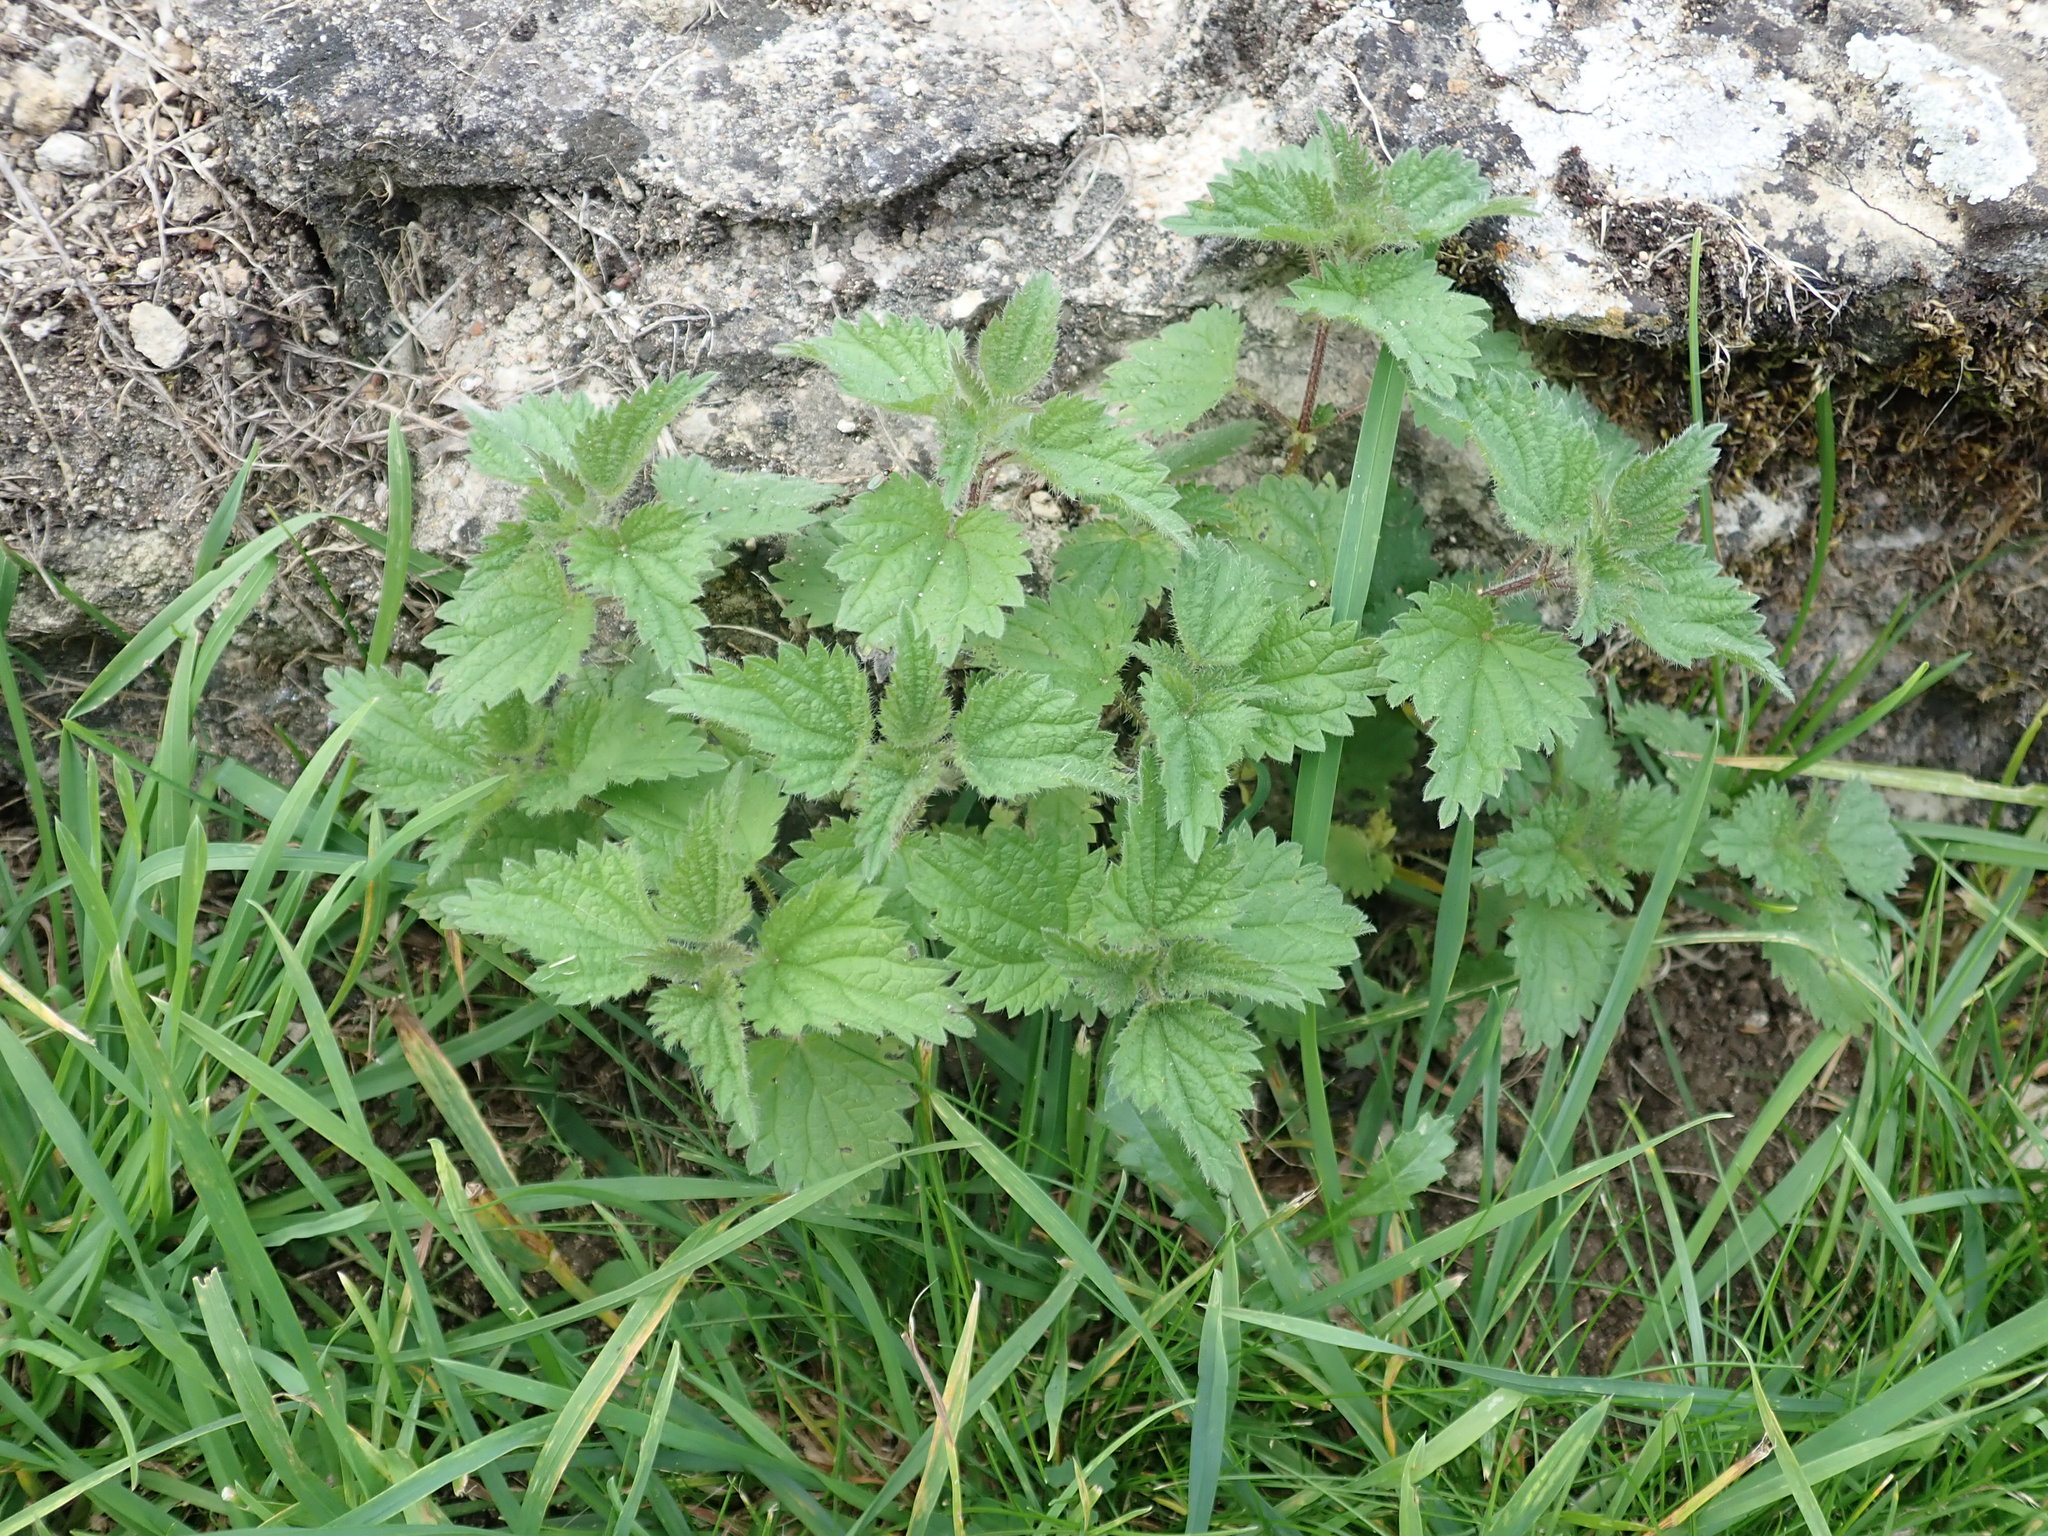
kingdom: Plantae
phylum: Tracheophyta
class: Magnoliopsida
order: Rosales
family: Urticaceae
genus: Urtica
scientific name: Urtica dioica
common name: Common nettle
